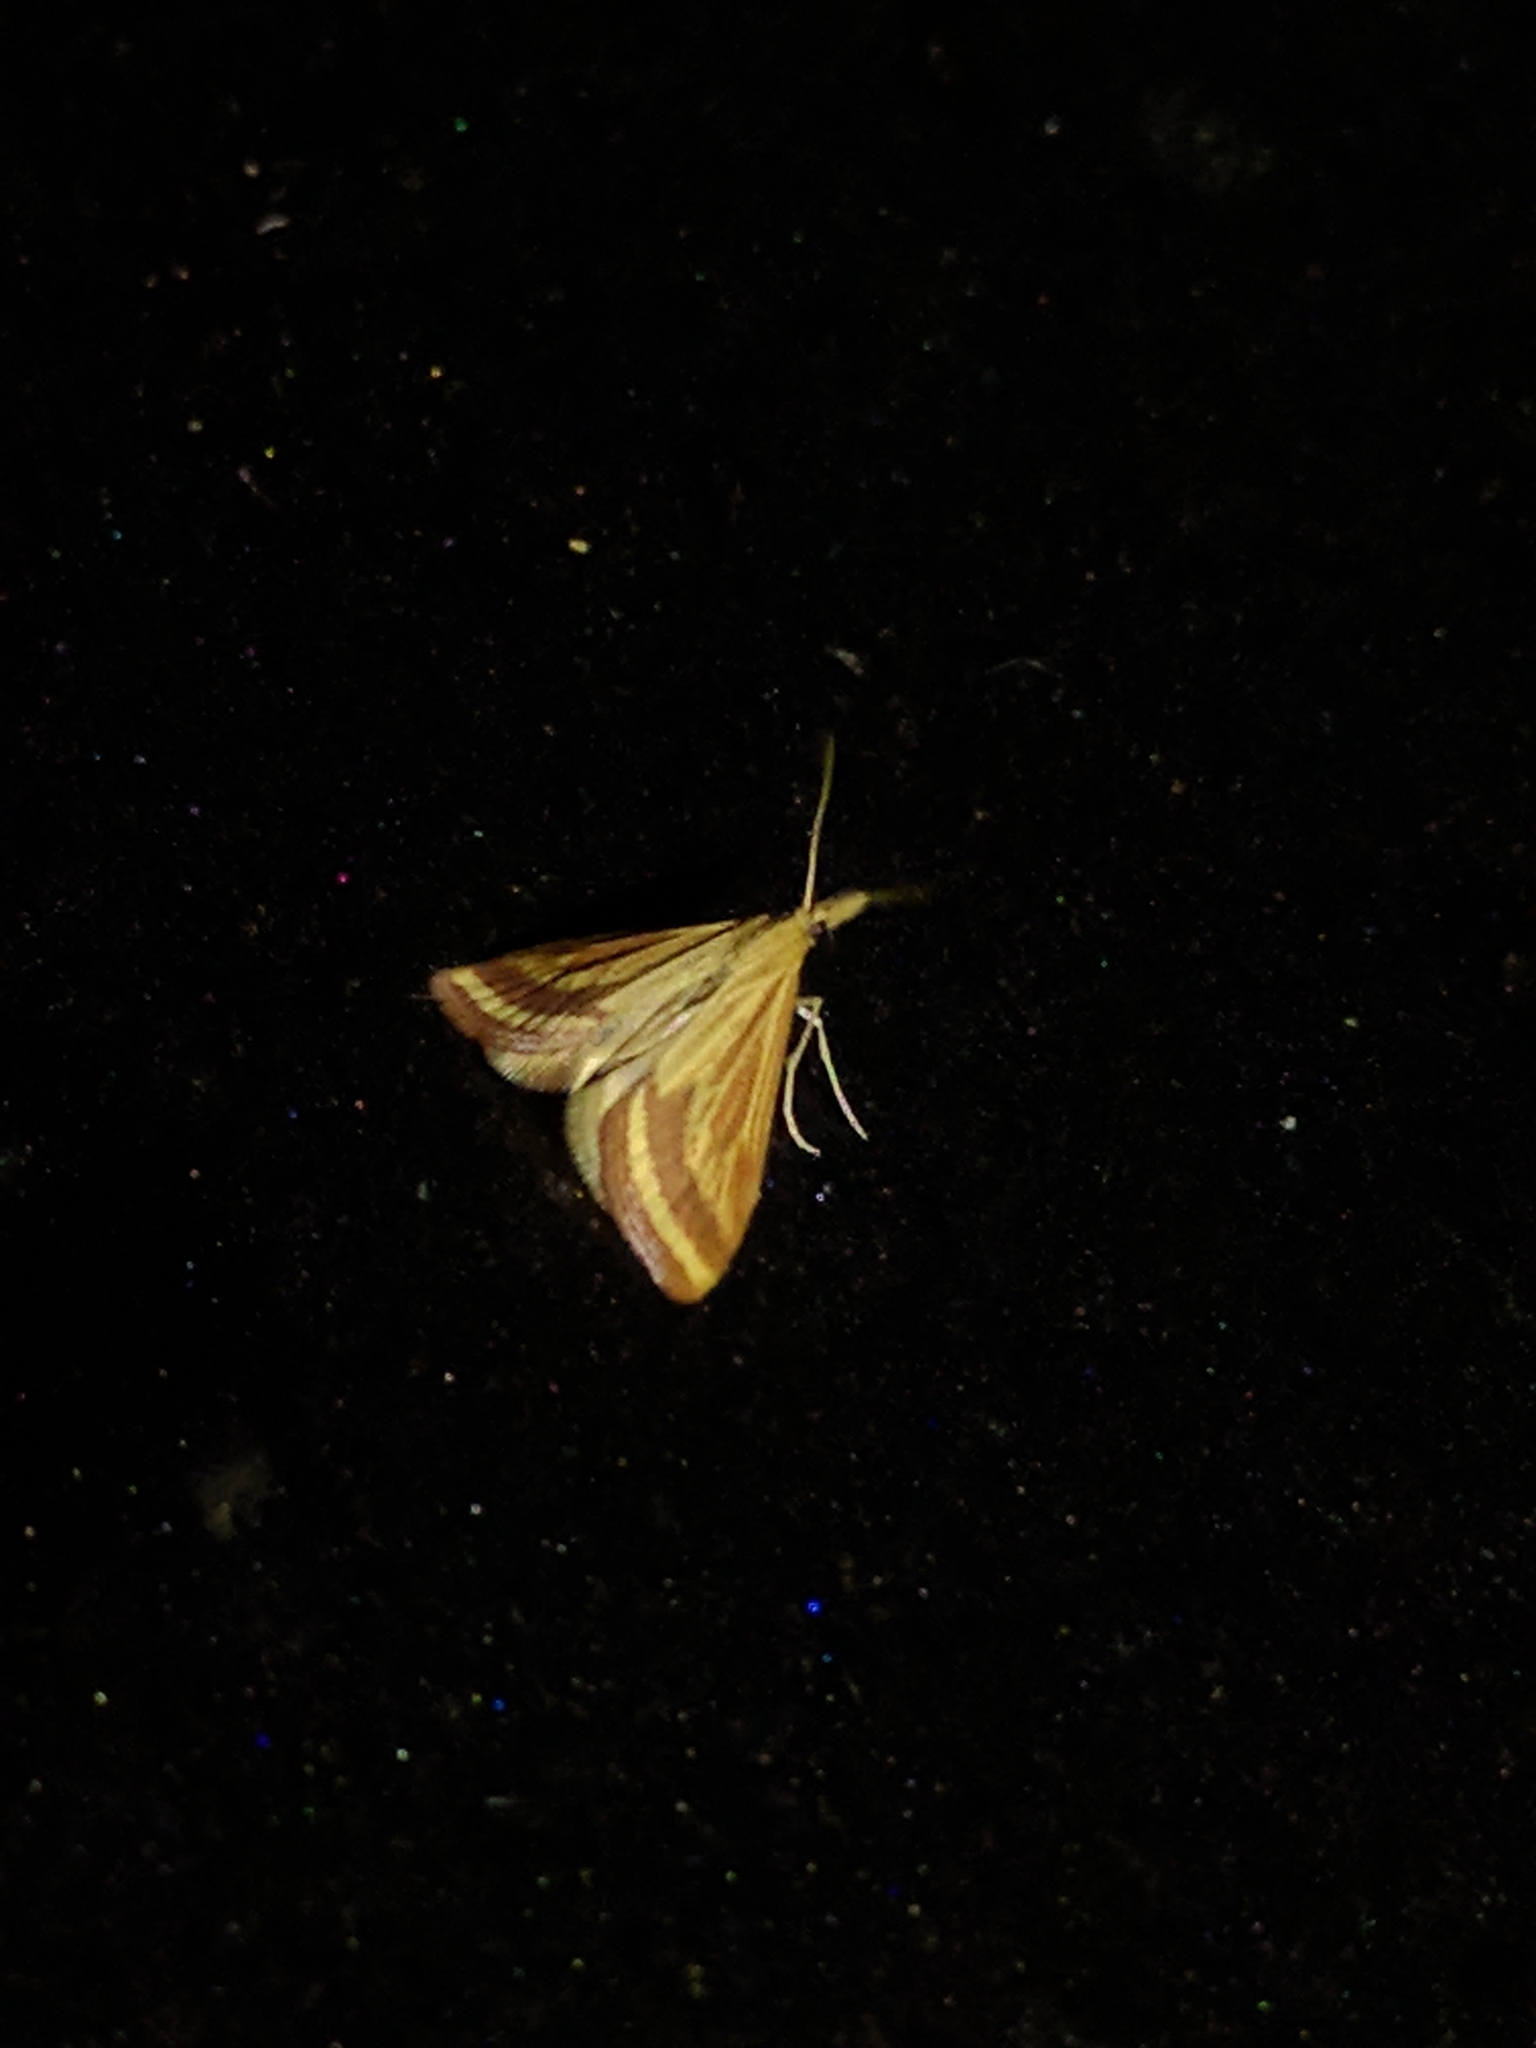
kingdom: Animalia
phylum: Arthropoda
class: Insecta
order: Lepidoptera
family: Crambidae
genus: Microtheoris
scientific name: Microtheoris ophionalis
